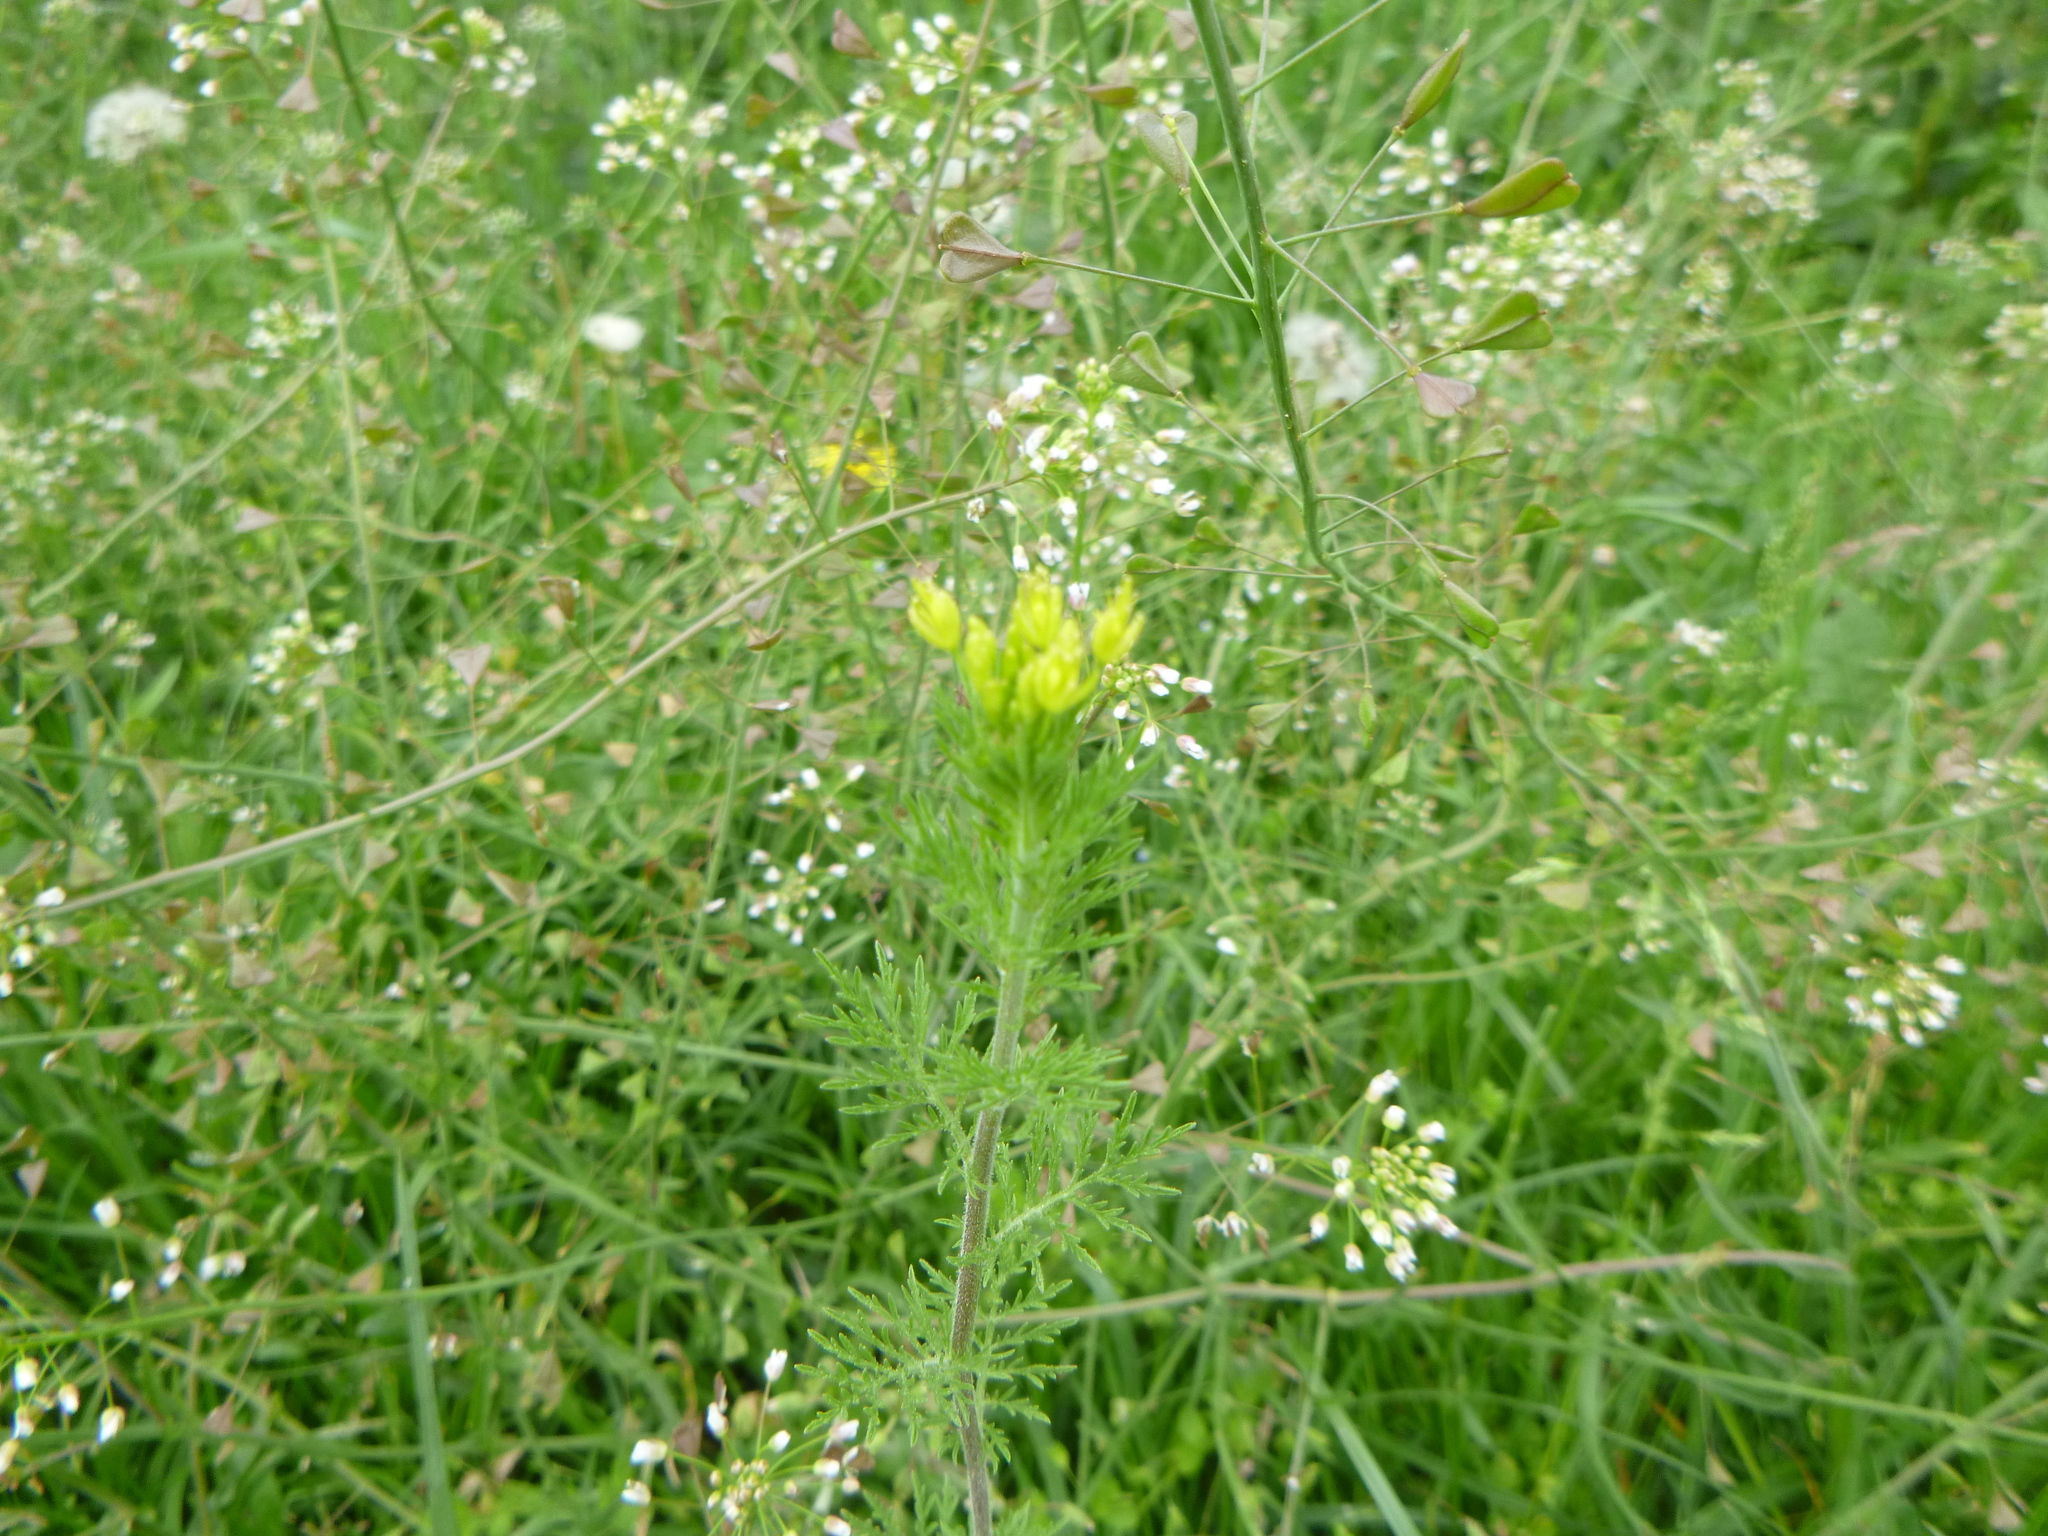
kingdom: Plantae
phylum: Tracheophyta
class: Magnoliopsida
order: Brassicales
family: Brassicaceae
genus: Descurainia
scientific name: Descurainia sophia
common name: Flixweed
